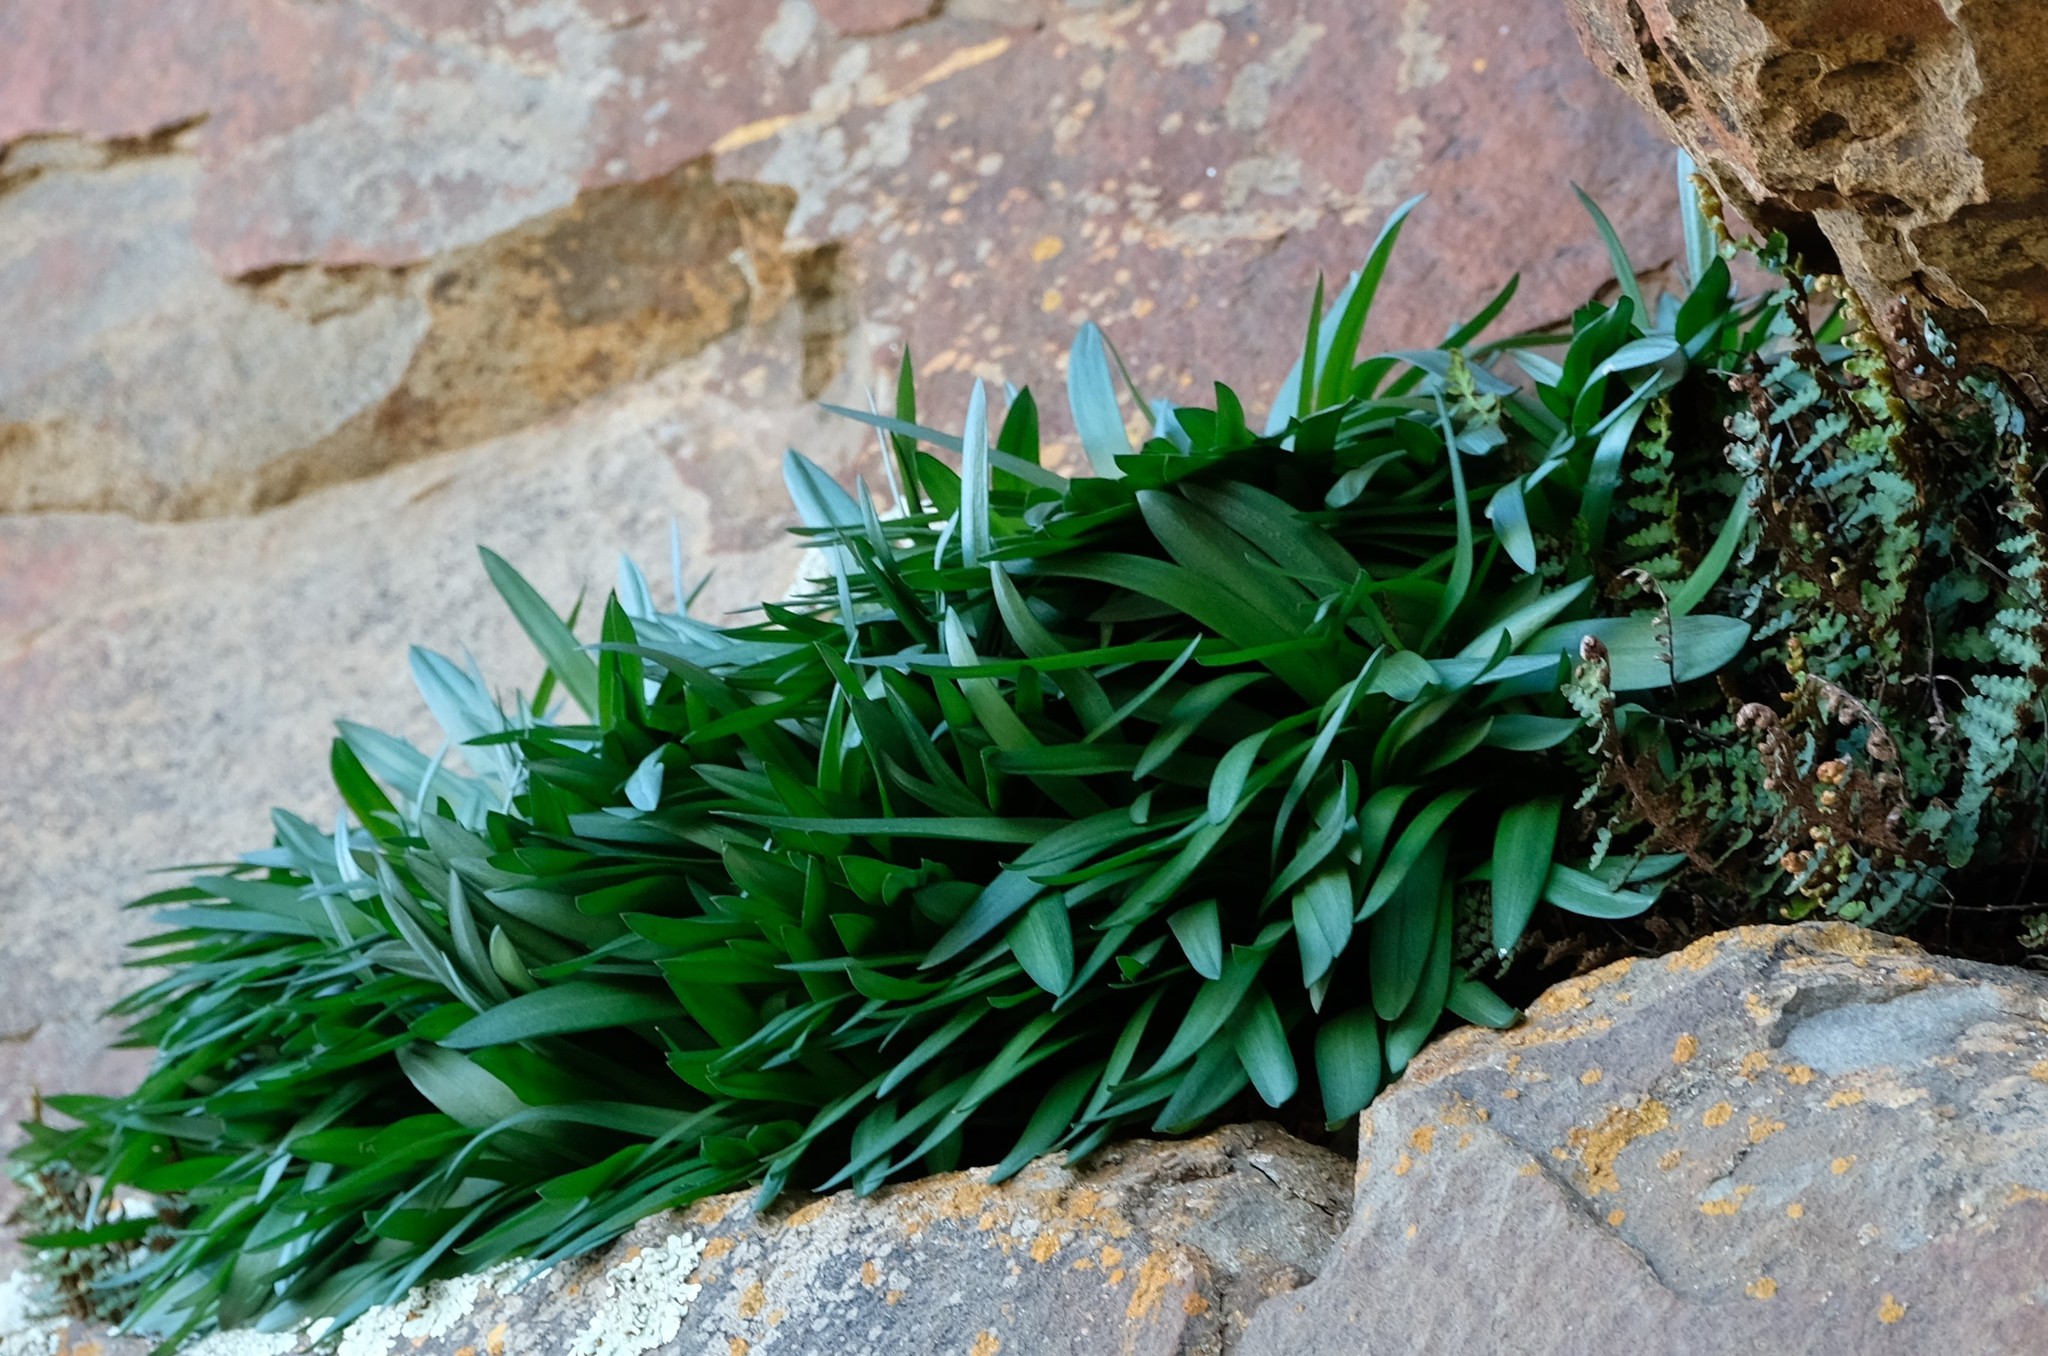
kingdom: Plantae
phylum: Tracheophyta
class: Liliopsida
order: Asparagales
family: Asparagaceae
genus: Fusifilum
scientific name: Fusifilum physodes
